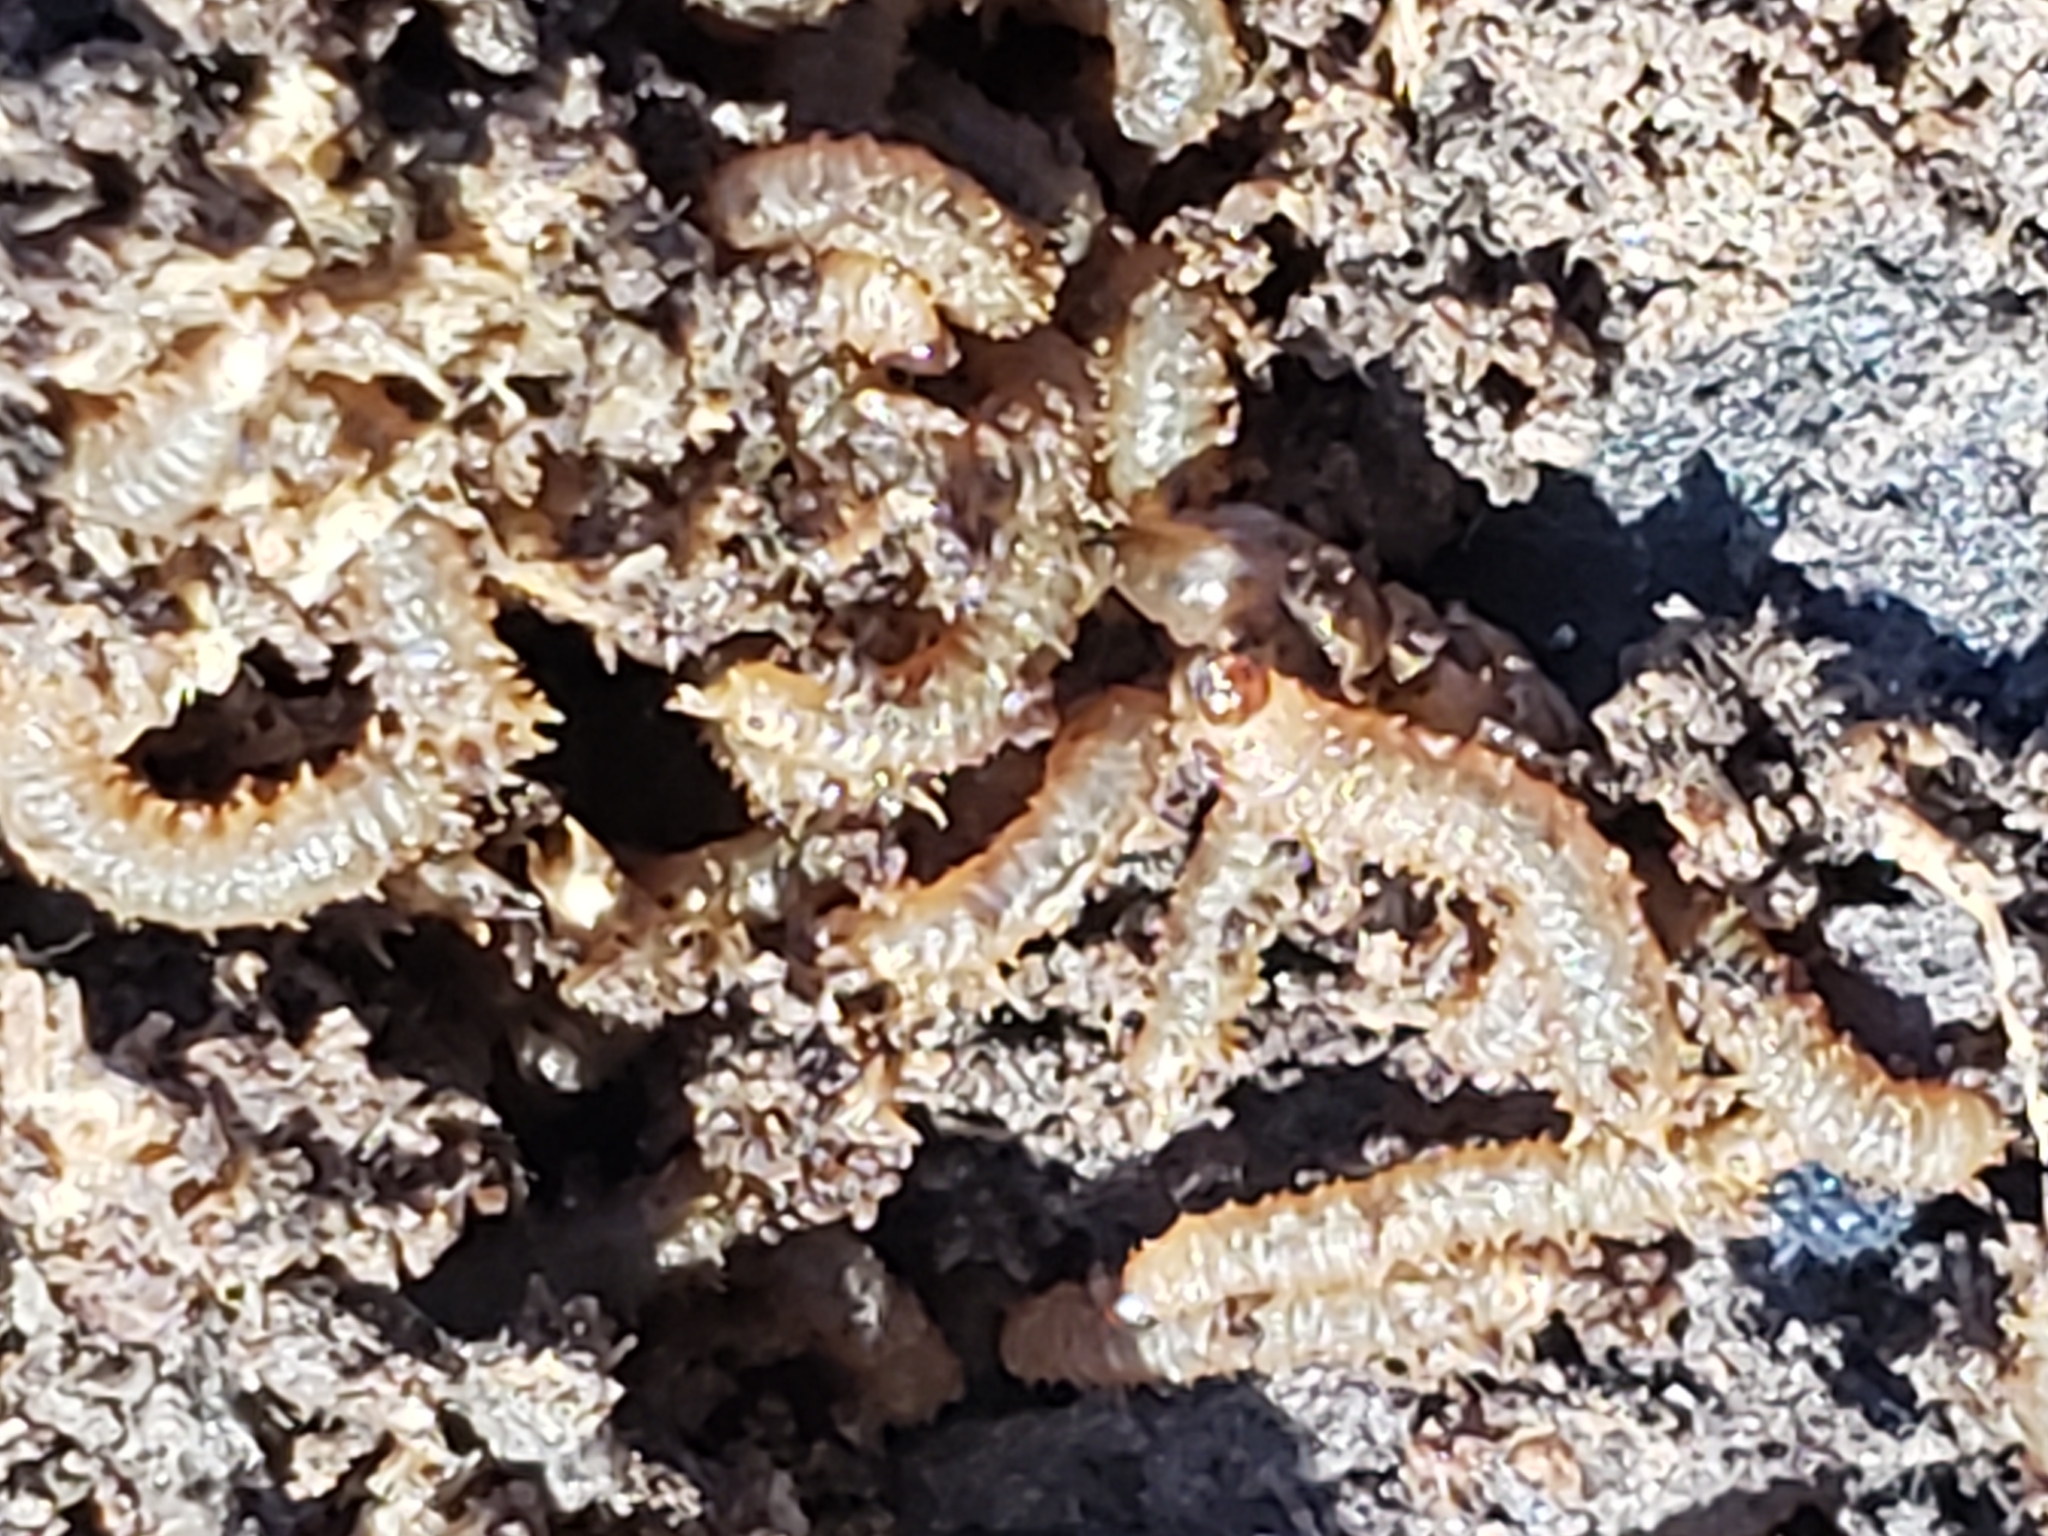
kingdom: Animalia
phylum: Arthropoda
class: Insecta
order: Diptera
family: Bibionidae
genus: Bibio
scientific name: Bibio
